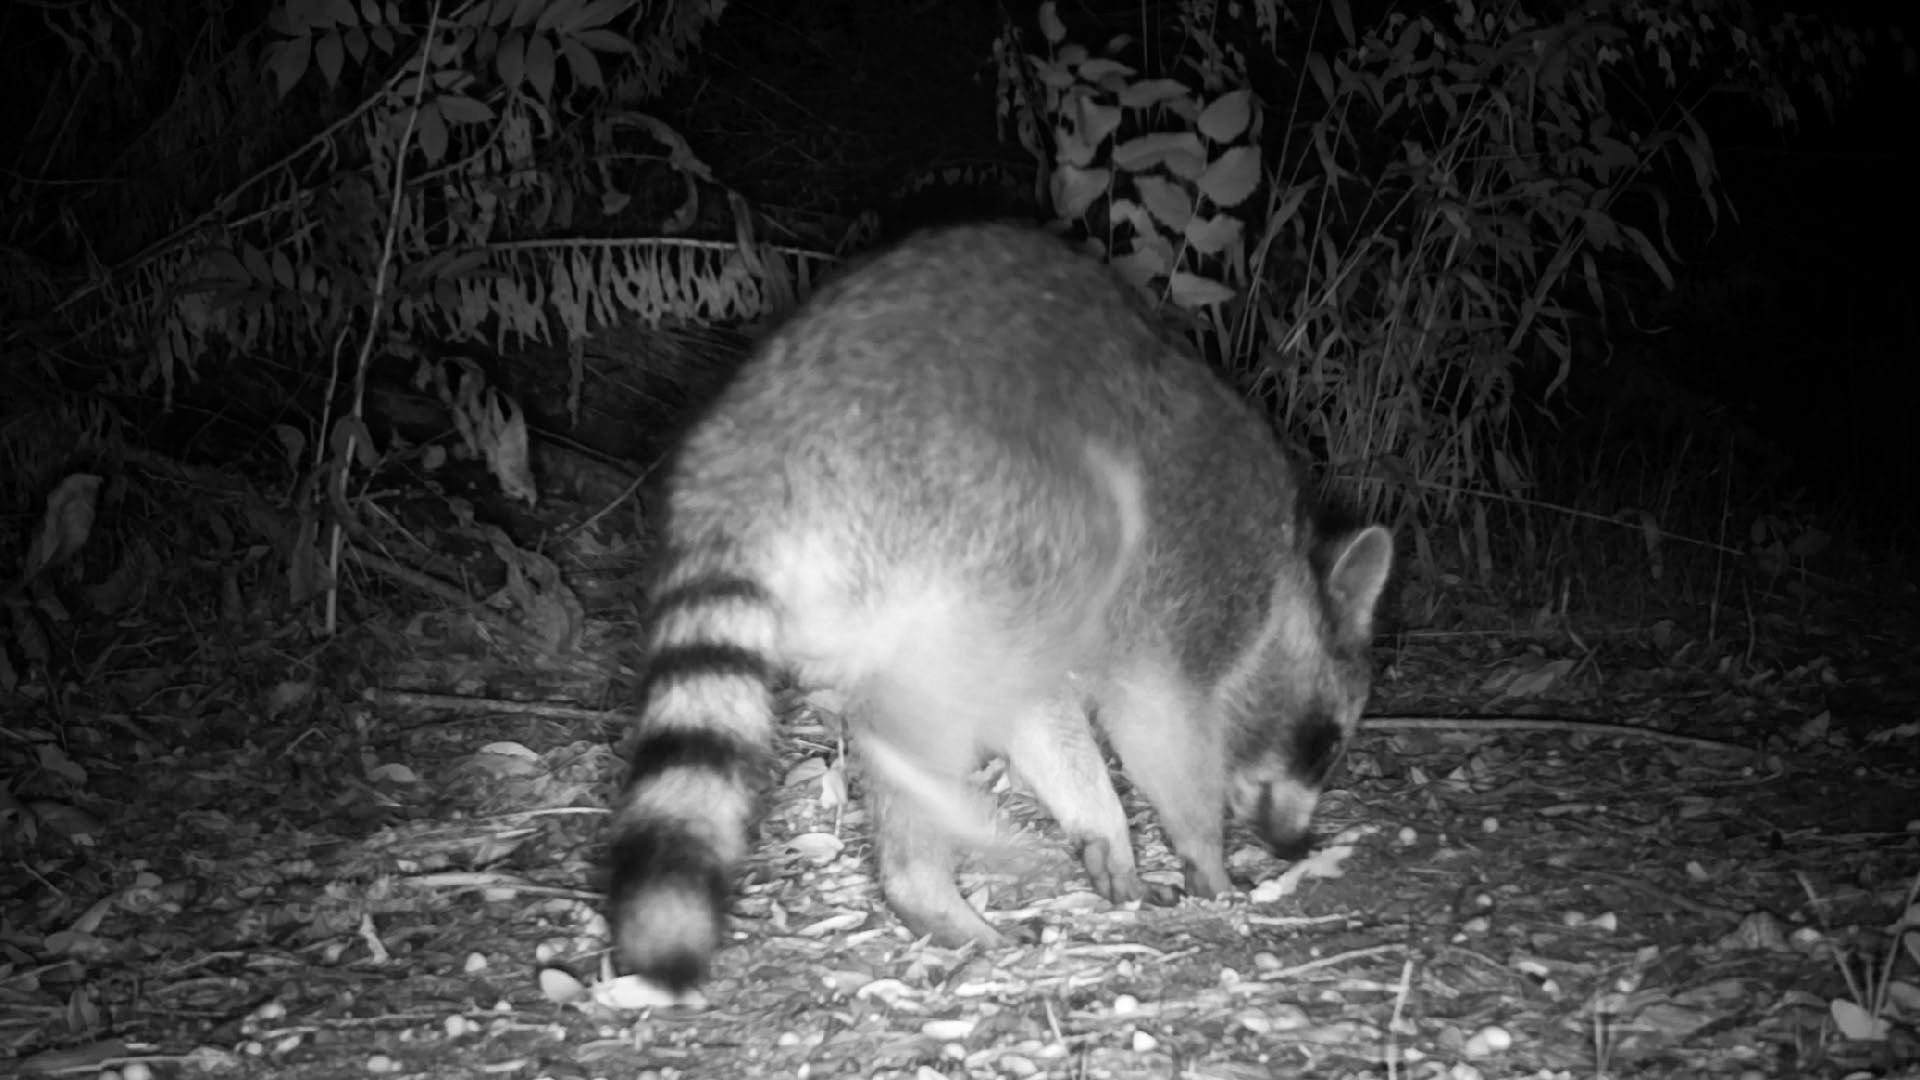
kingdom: Animalia
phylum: Chordata
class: Mammalia
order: Carnivora
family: Procyonidae
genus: Procyon
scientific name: Procyon lotor
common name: Raccoon
